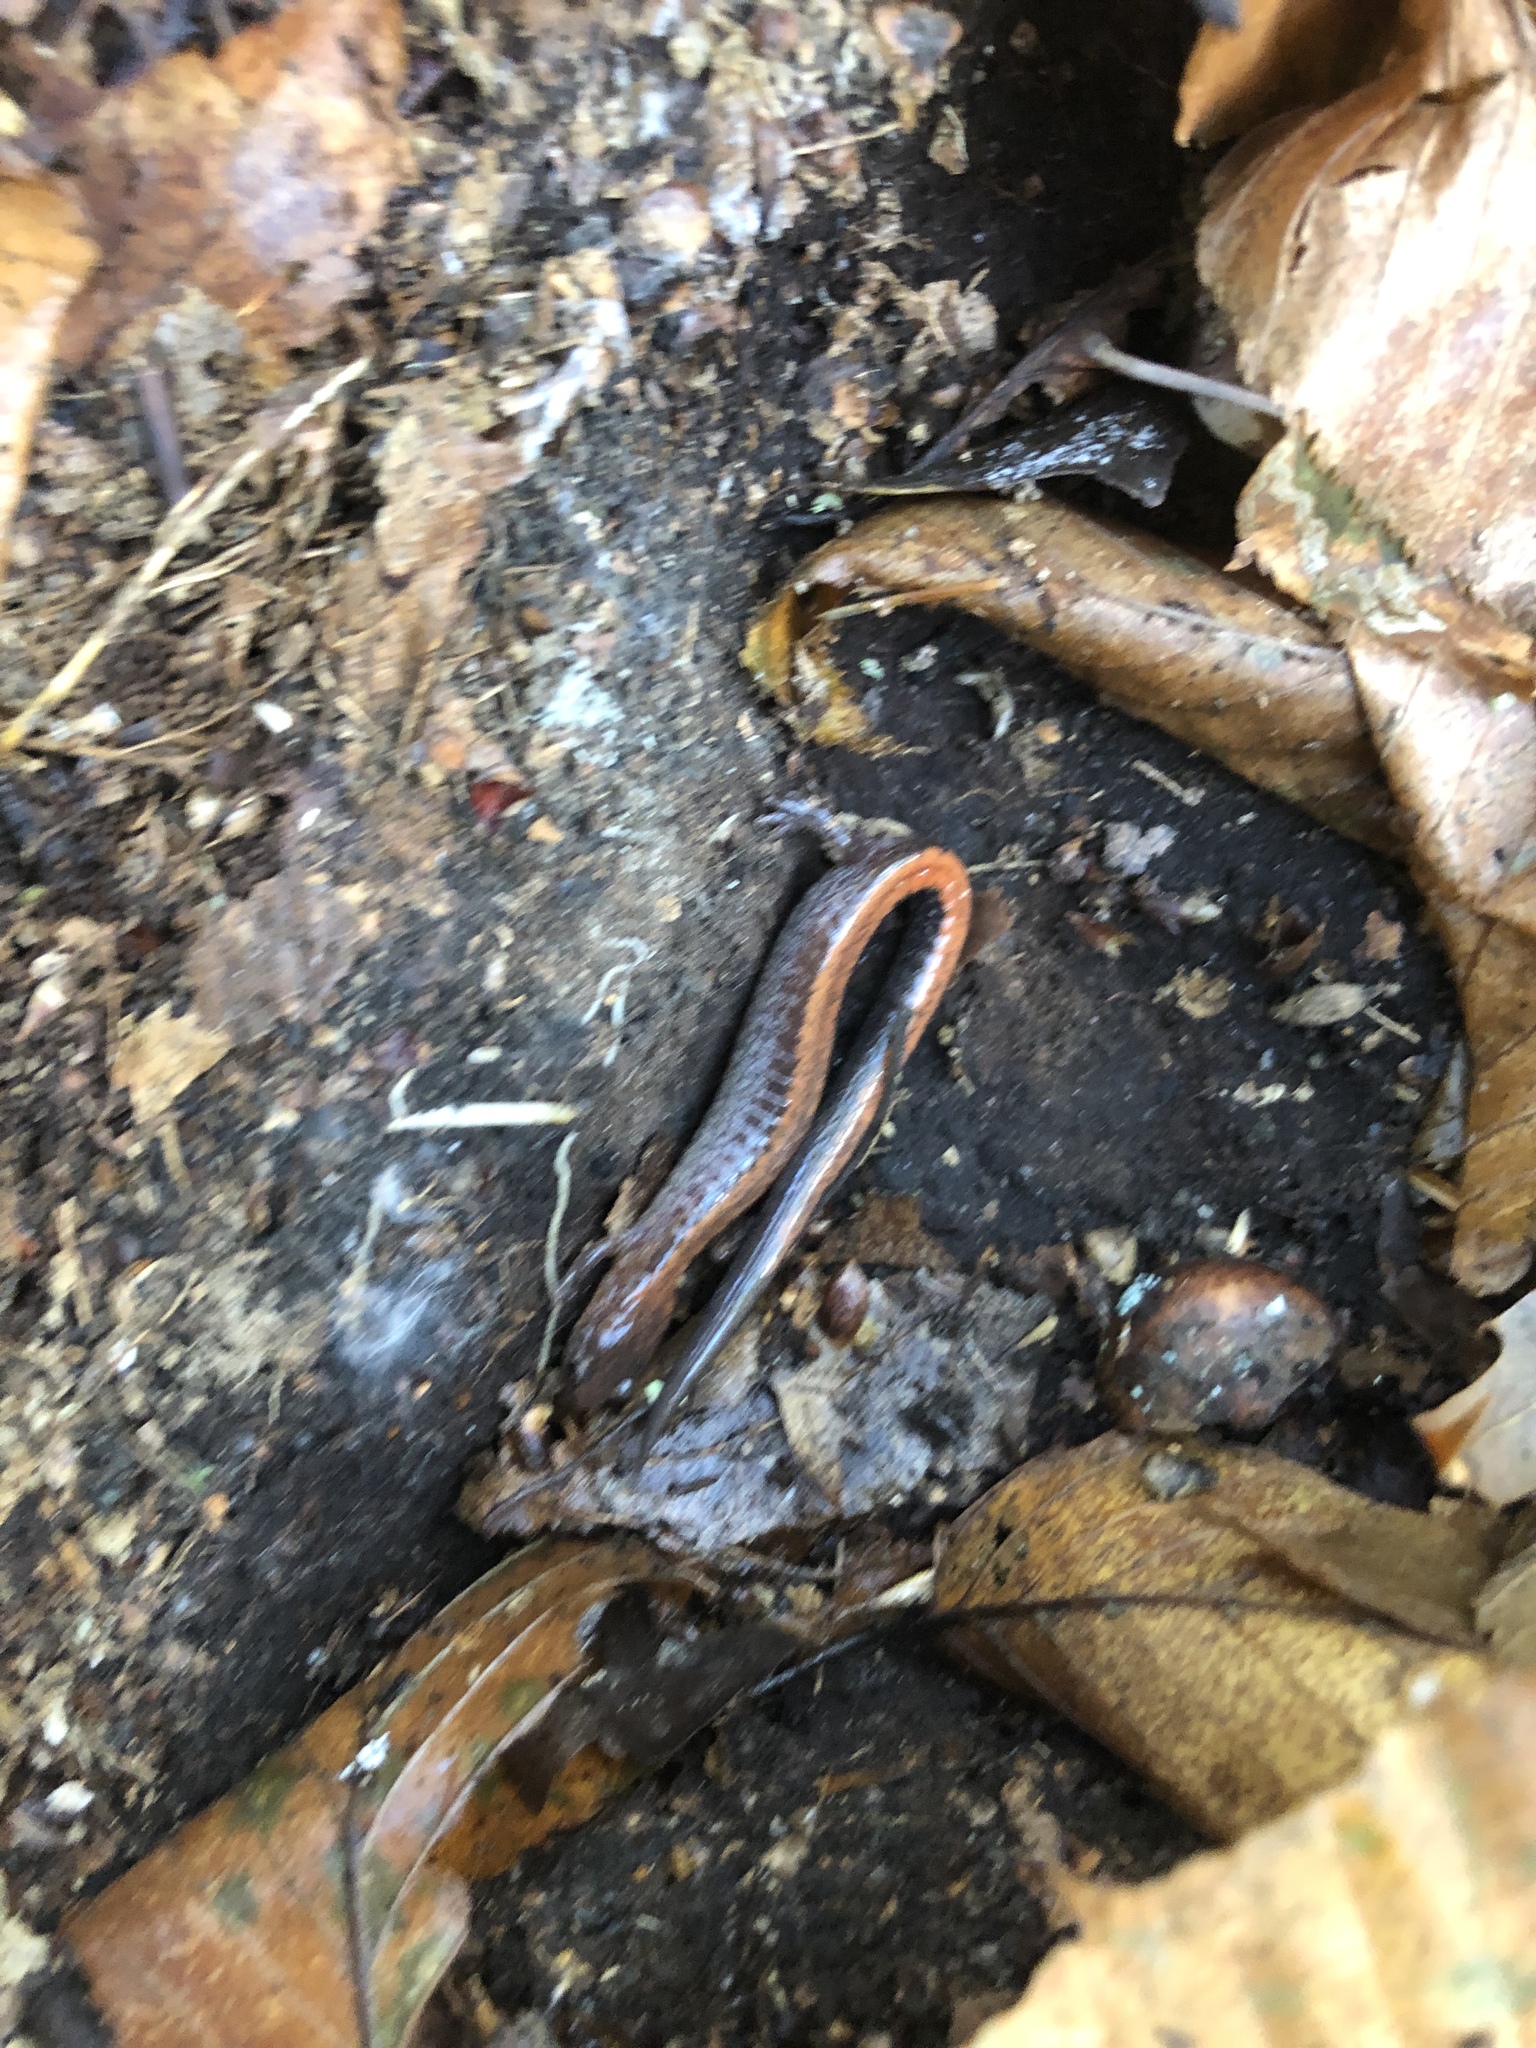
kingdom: Animalia
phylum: Chordata
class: Amphibia
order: Caudata
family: Plethodontidae
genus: Plethodon
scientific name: Plethodon cinereus
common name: Redback salamander
